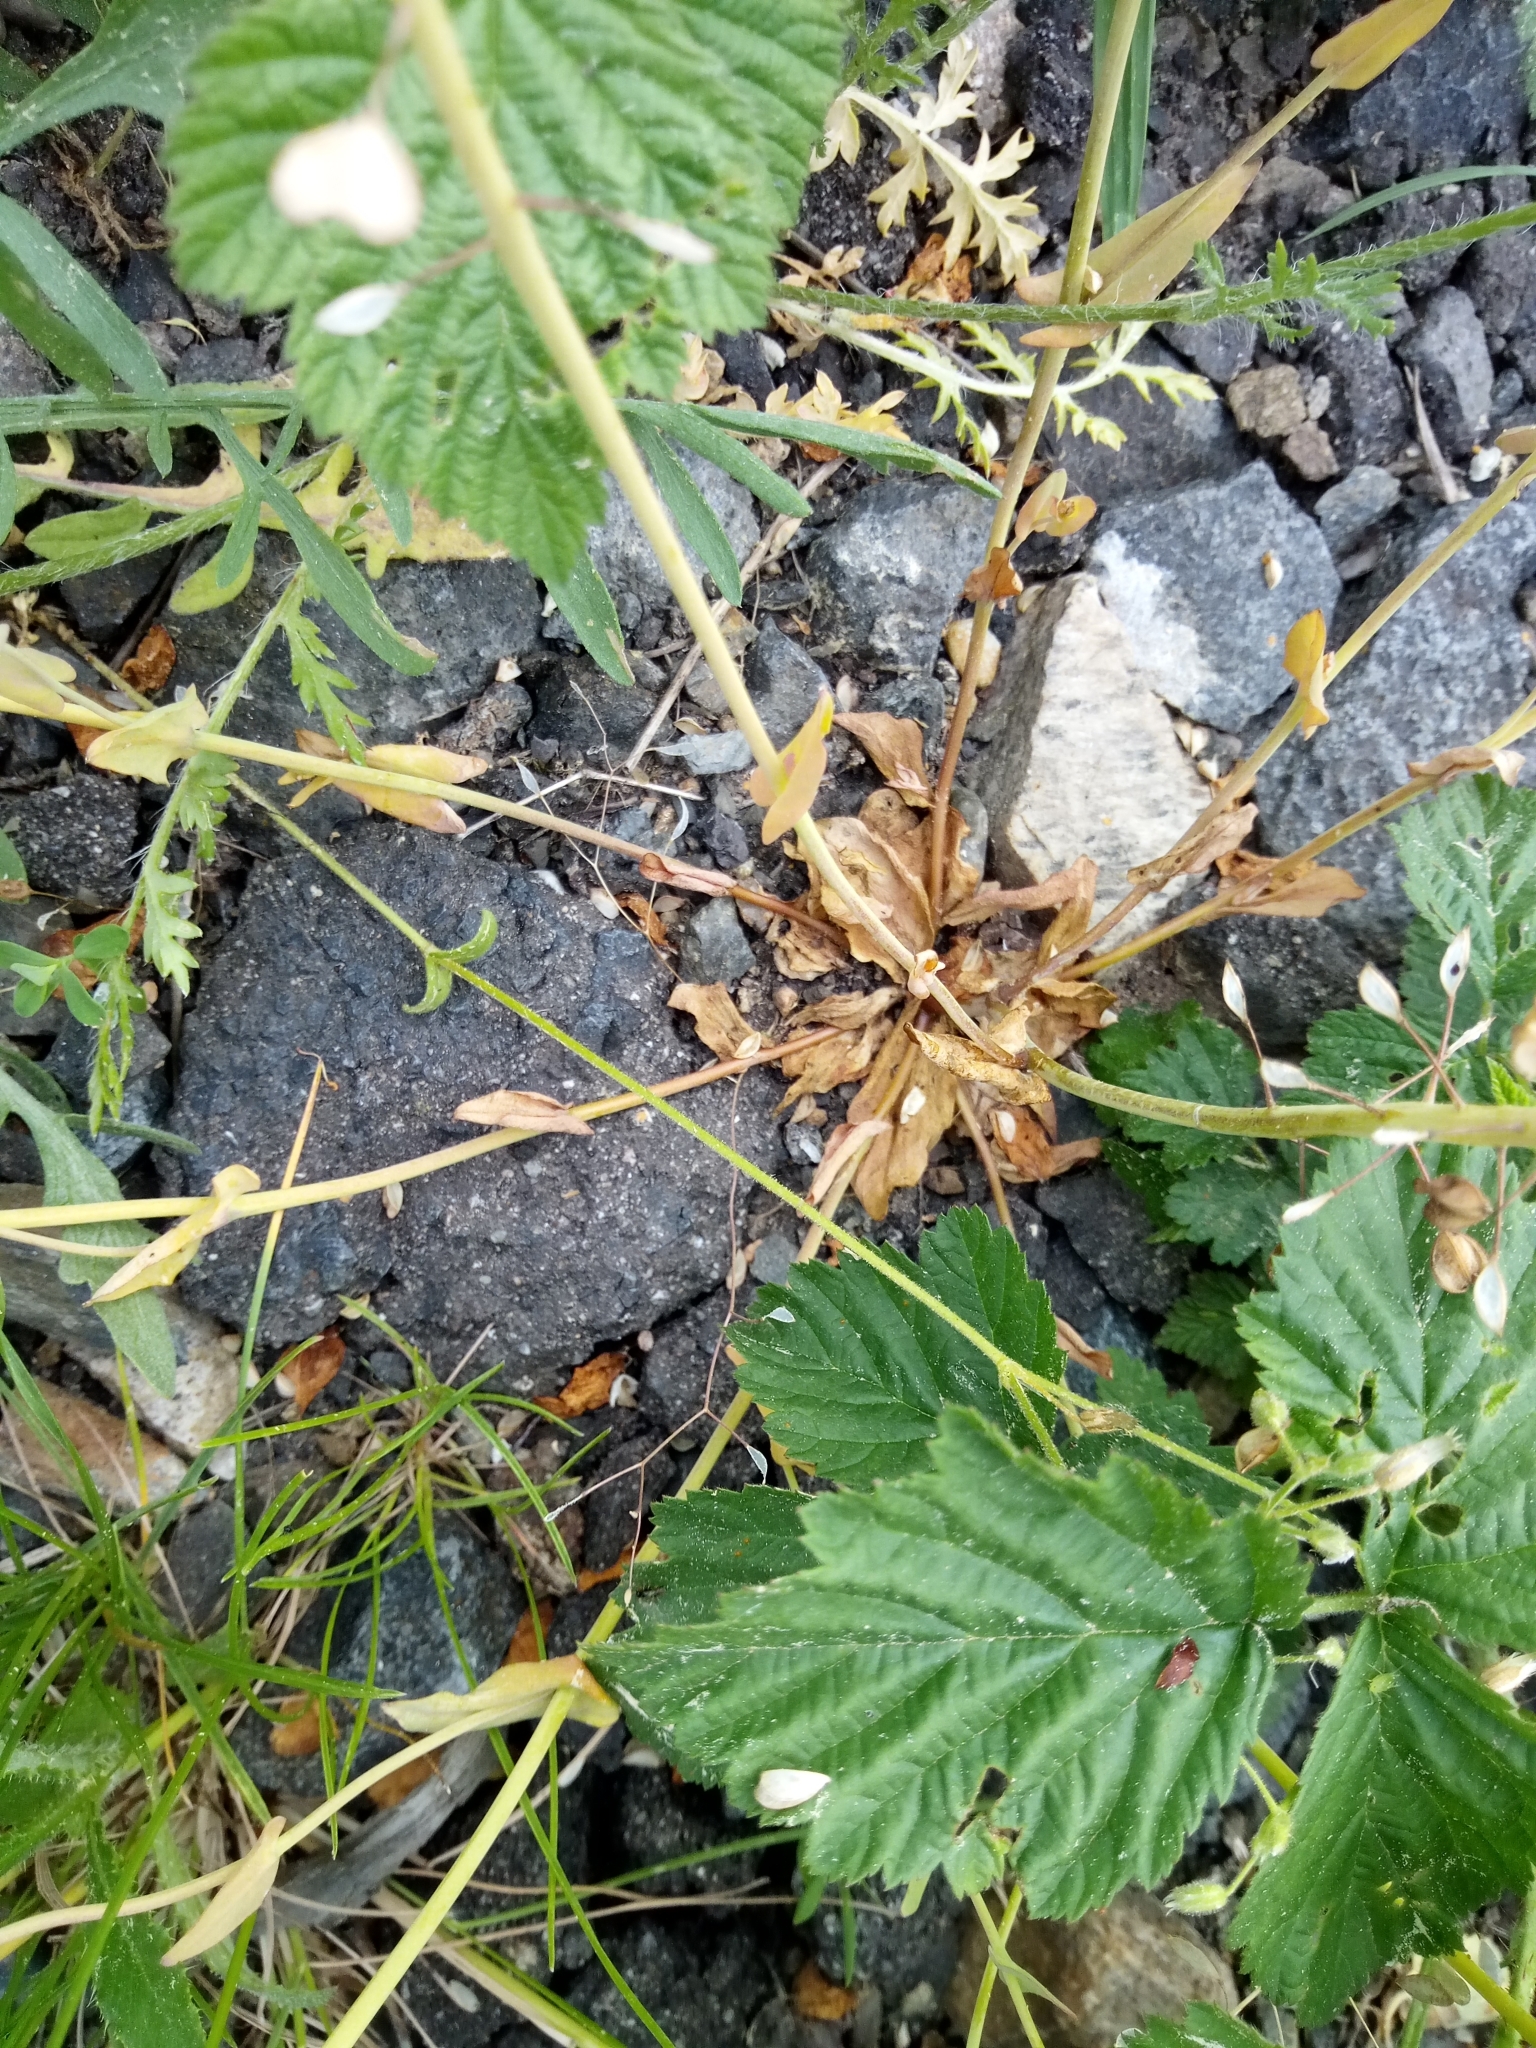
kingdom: Plantae
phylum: Tracheophyta
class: Magnoliopsida
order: Brassicales
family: Brassicaceae
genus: Noccaea
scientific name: Noccaea perfoliata
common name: Perfoliate pennycress
